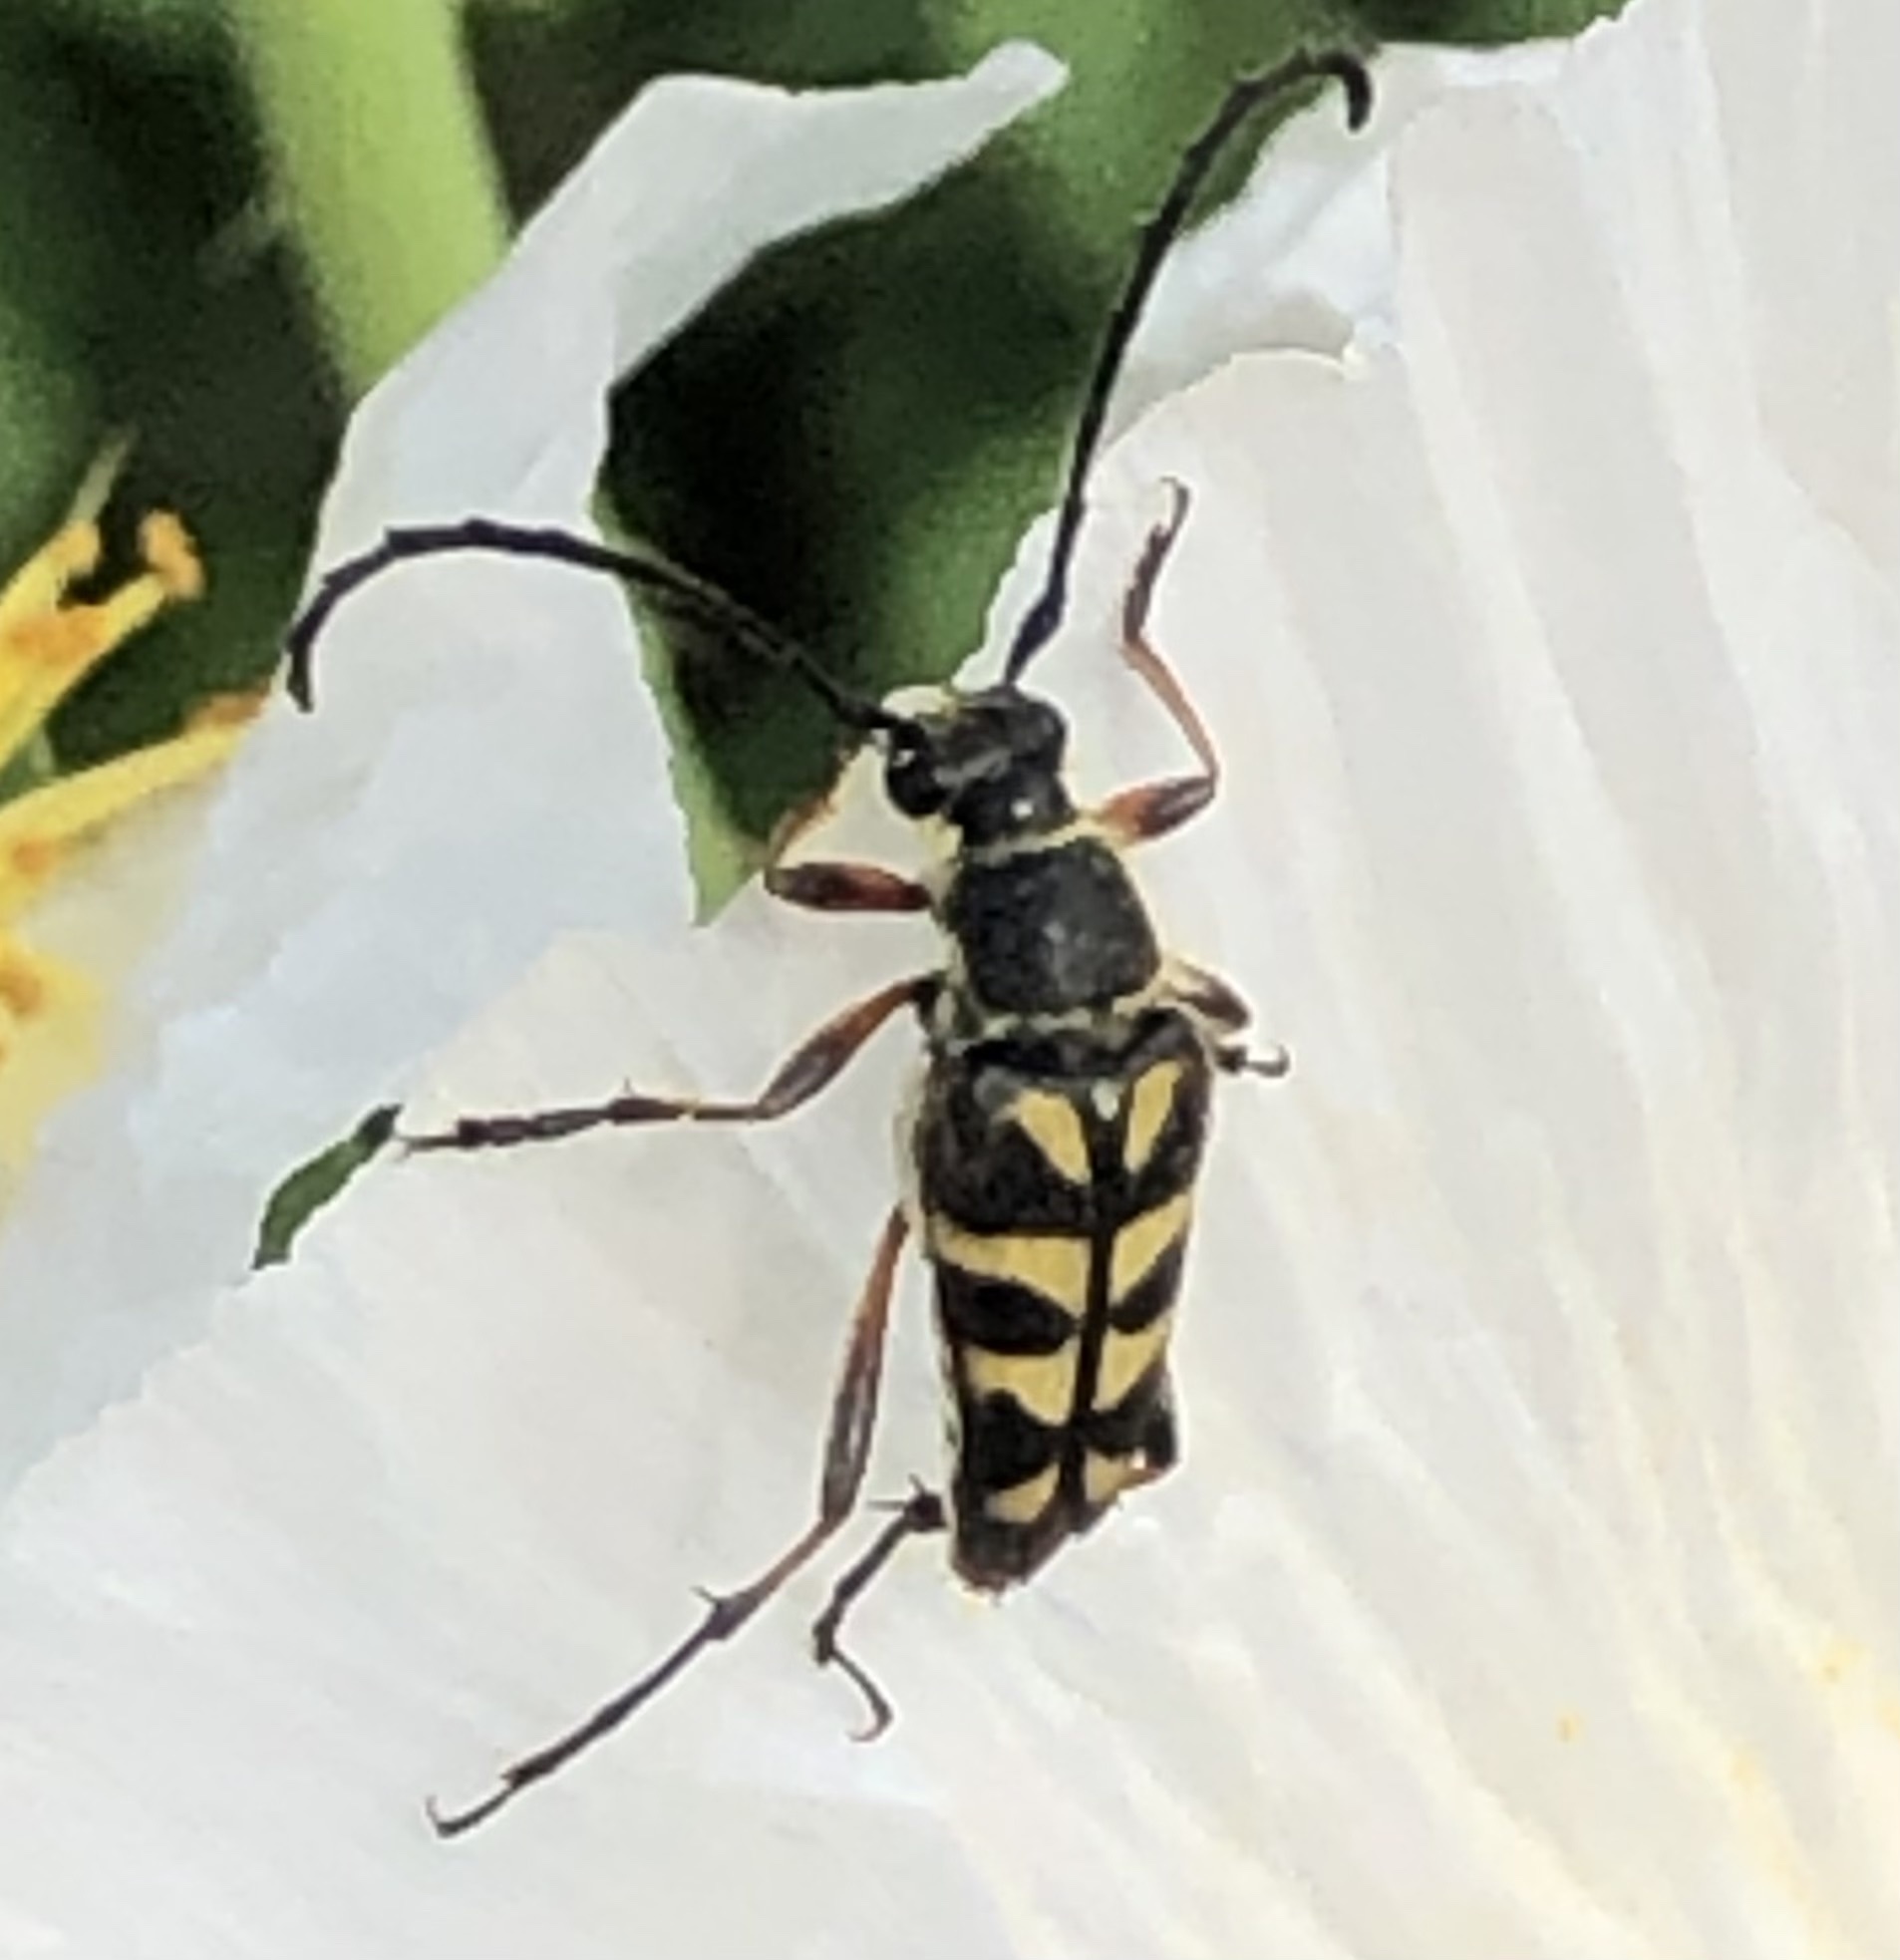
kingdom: Animalia
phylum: Arthropoda
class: Insecta
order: Coleoptera
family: Cerambycidae
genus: Typocerus
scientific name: Typocerus zebra
